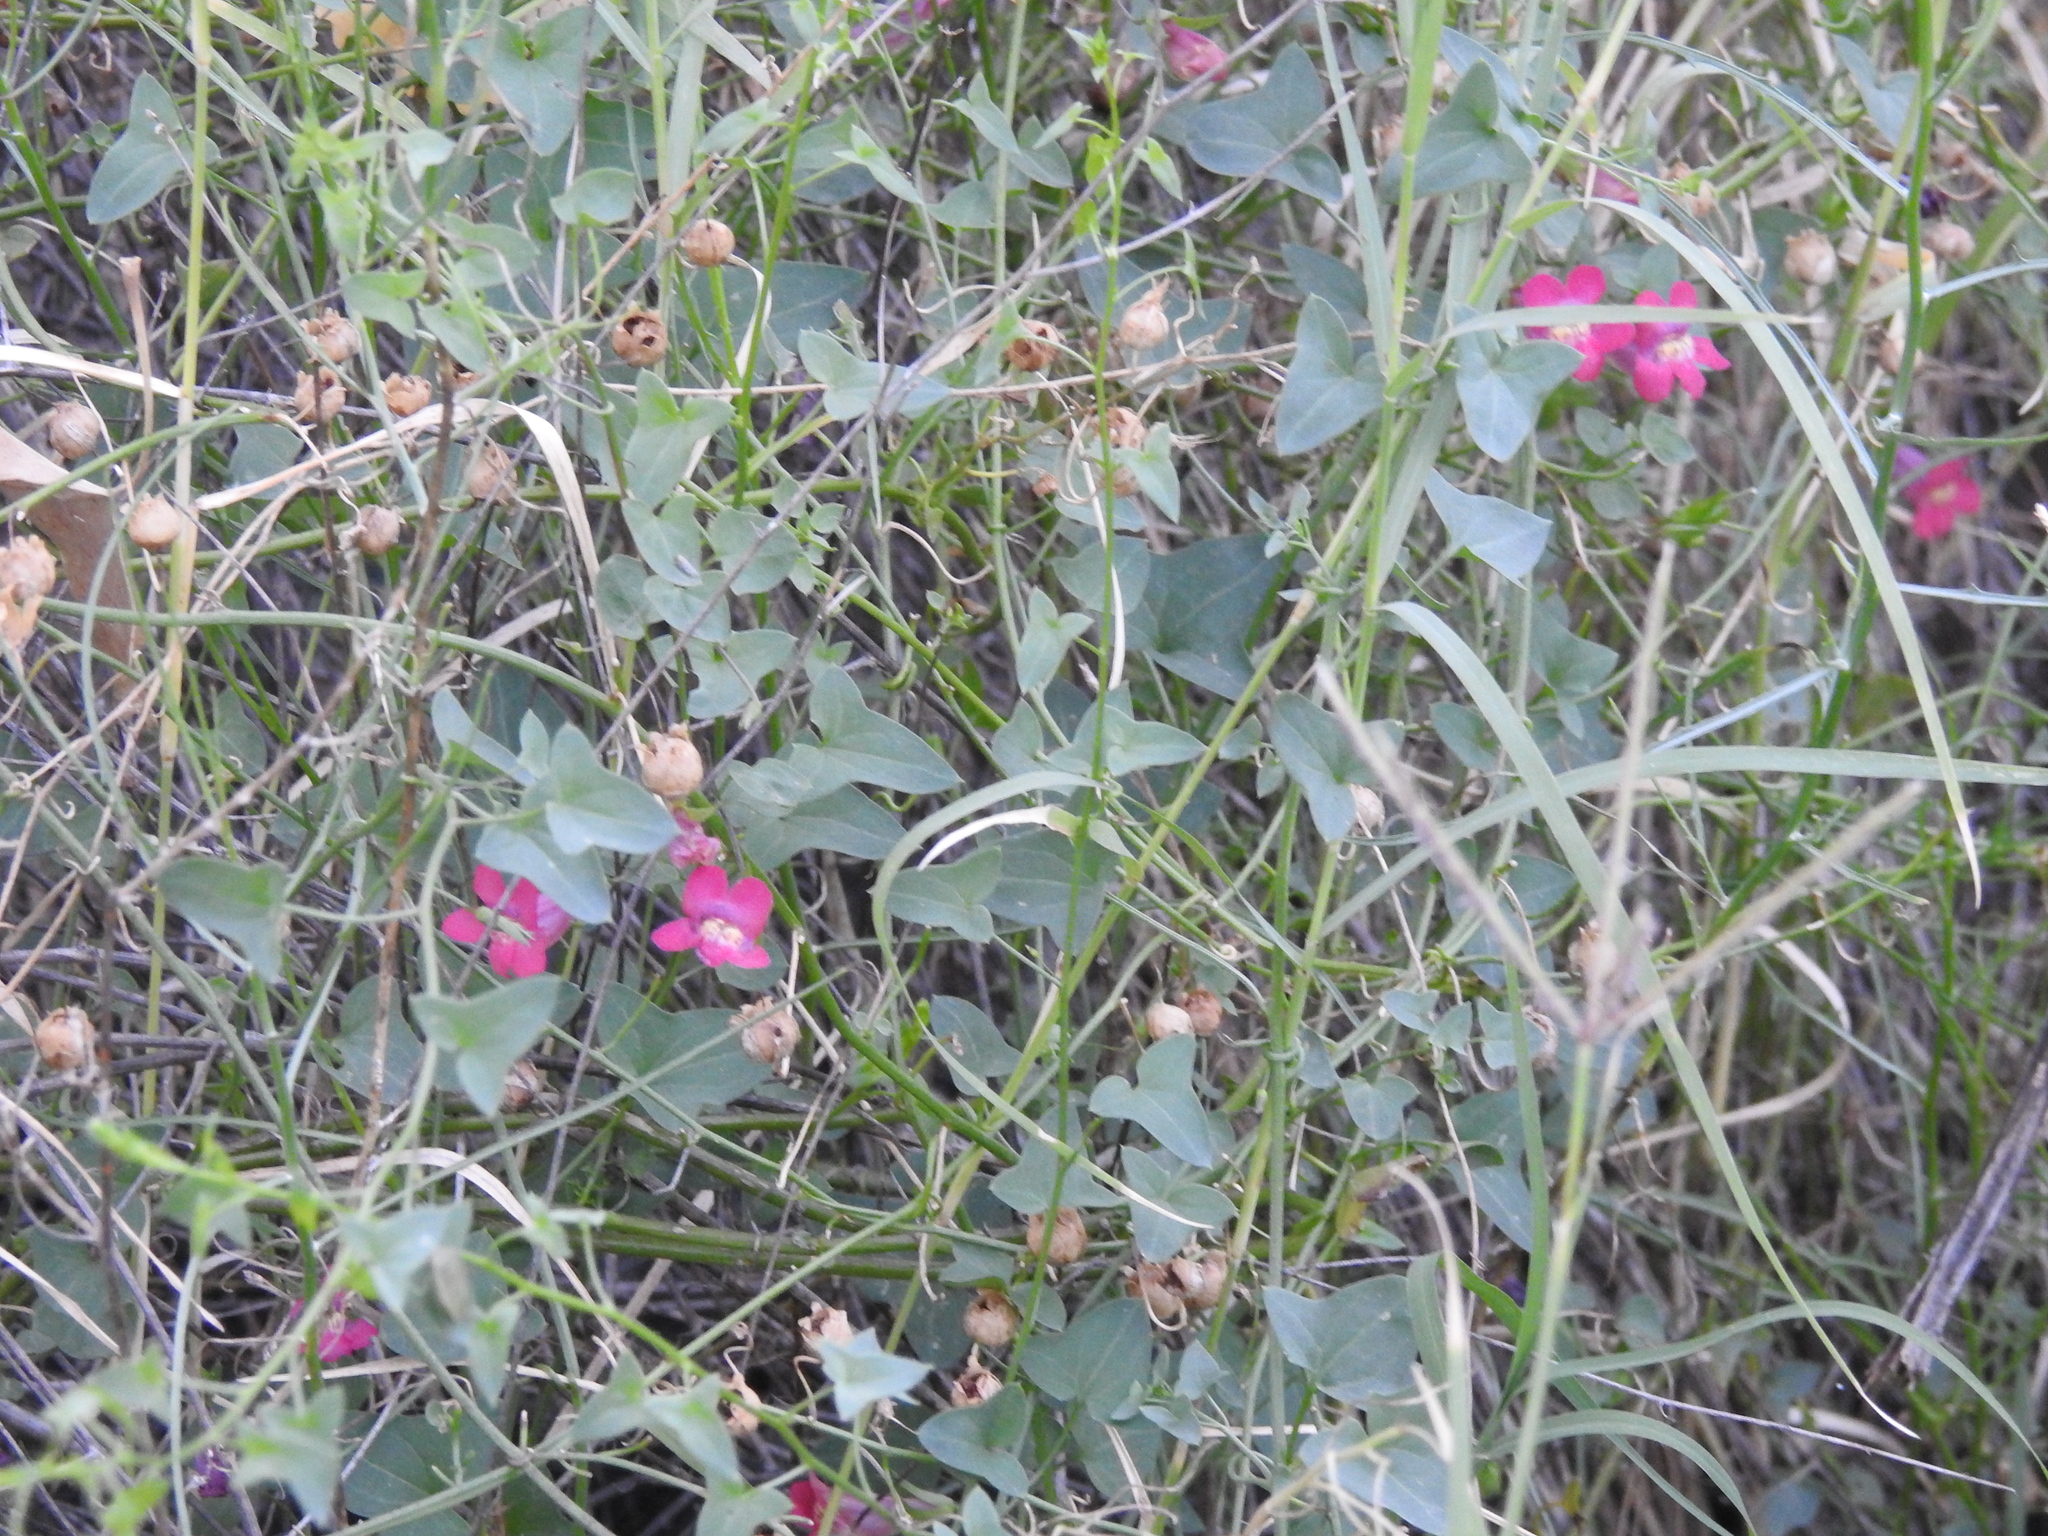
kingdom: Plantae
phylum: Tracheophyta
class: Magnoliopsida
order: Lamiales
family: Plantaginaceae
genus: Maurandella
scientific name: Maurandella antirrhiniflora
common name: Violet twining-snapdragon
